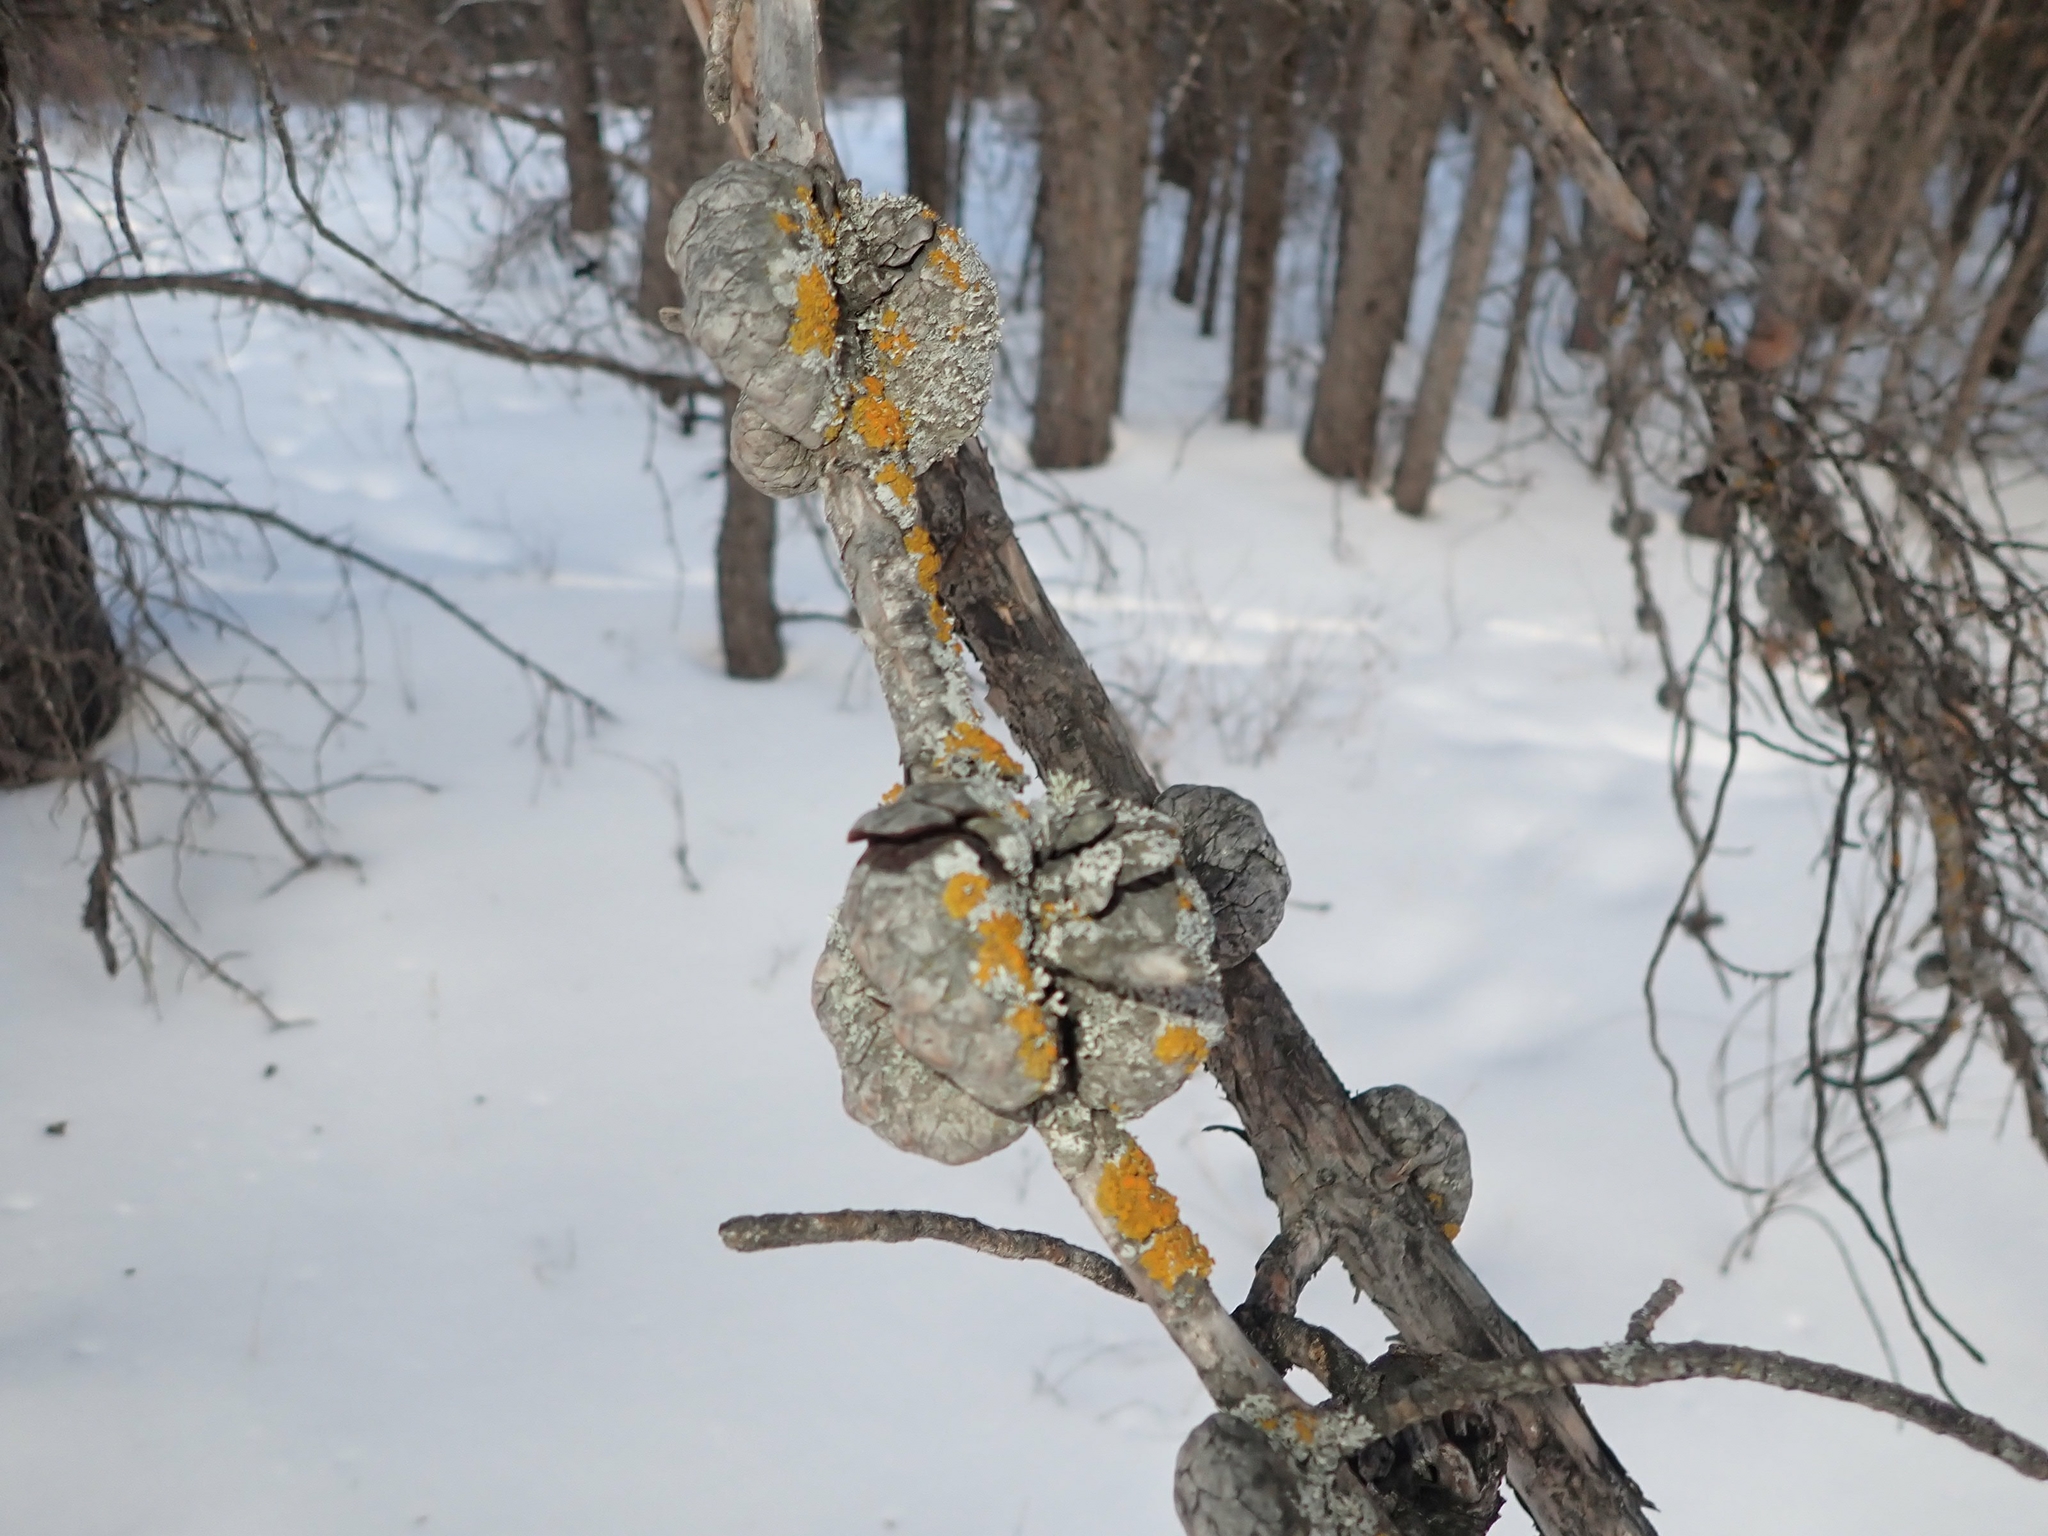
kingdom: Plantae
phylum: Tracheophyta
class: Pinopsida
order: Pinales
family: Pinaceae
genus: Pinus
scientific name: Pinus banksiana
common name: Jack pine
